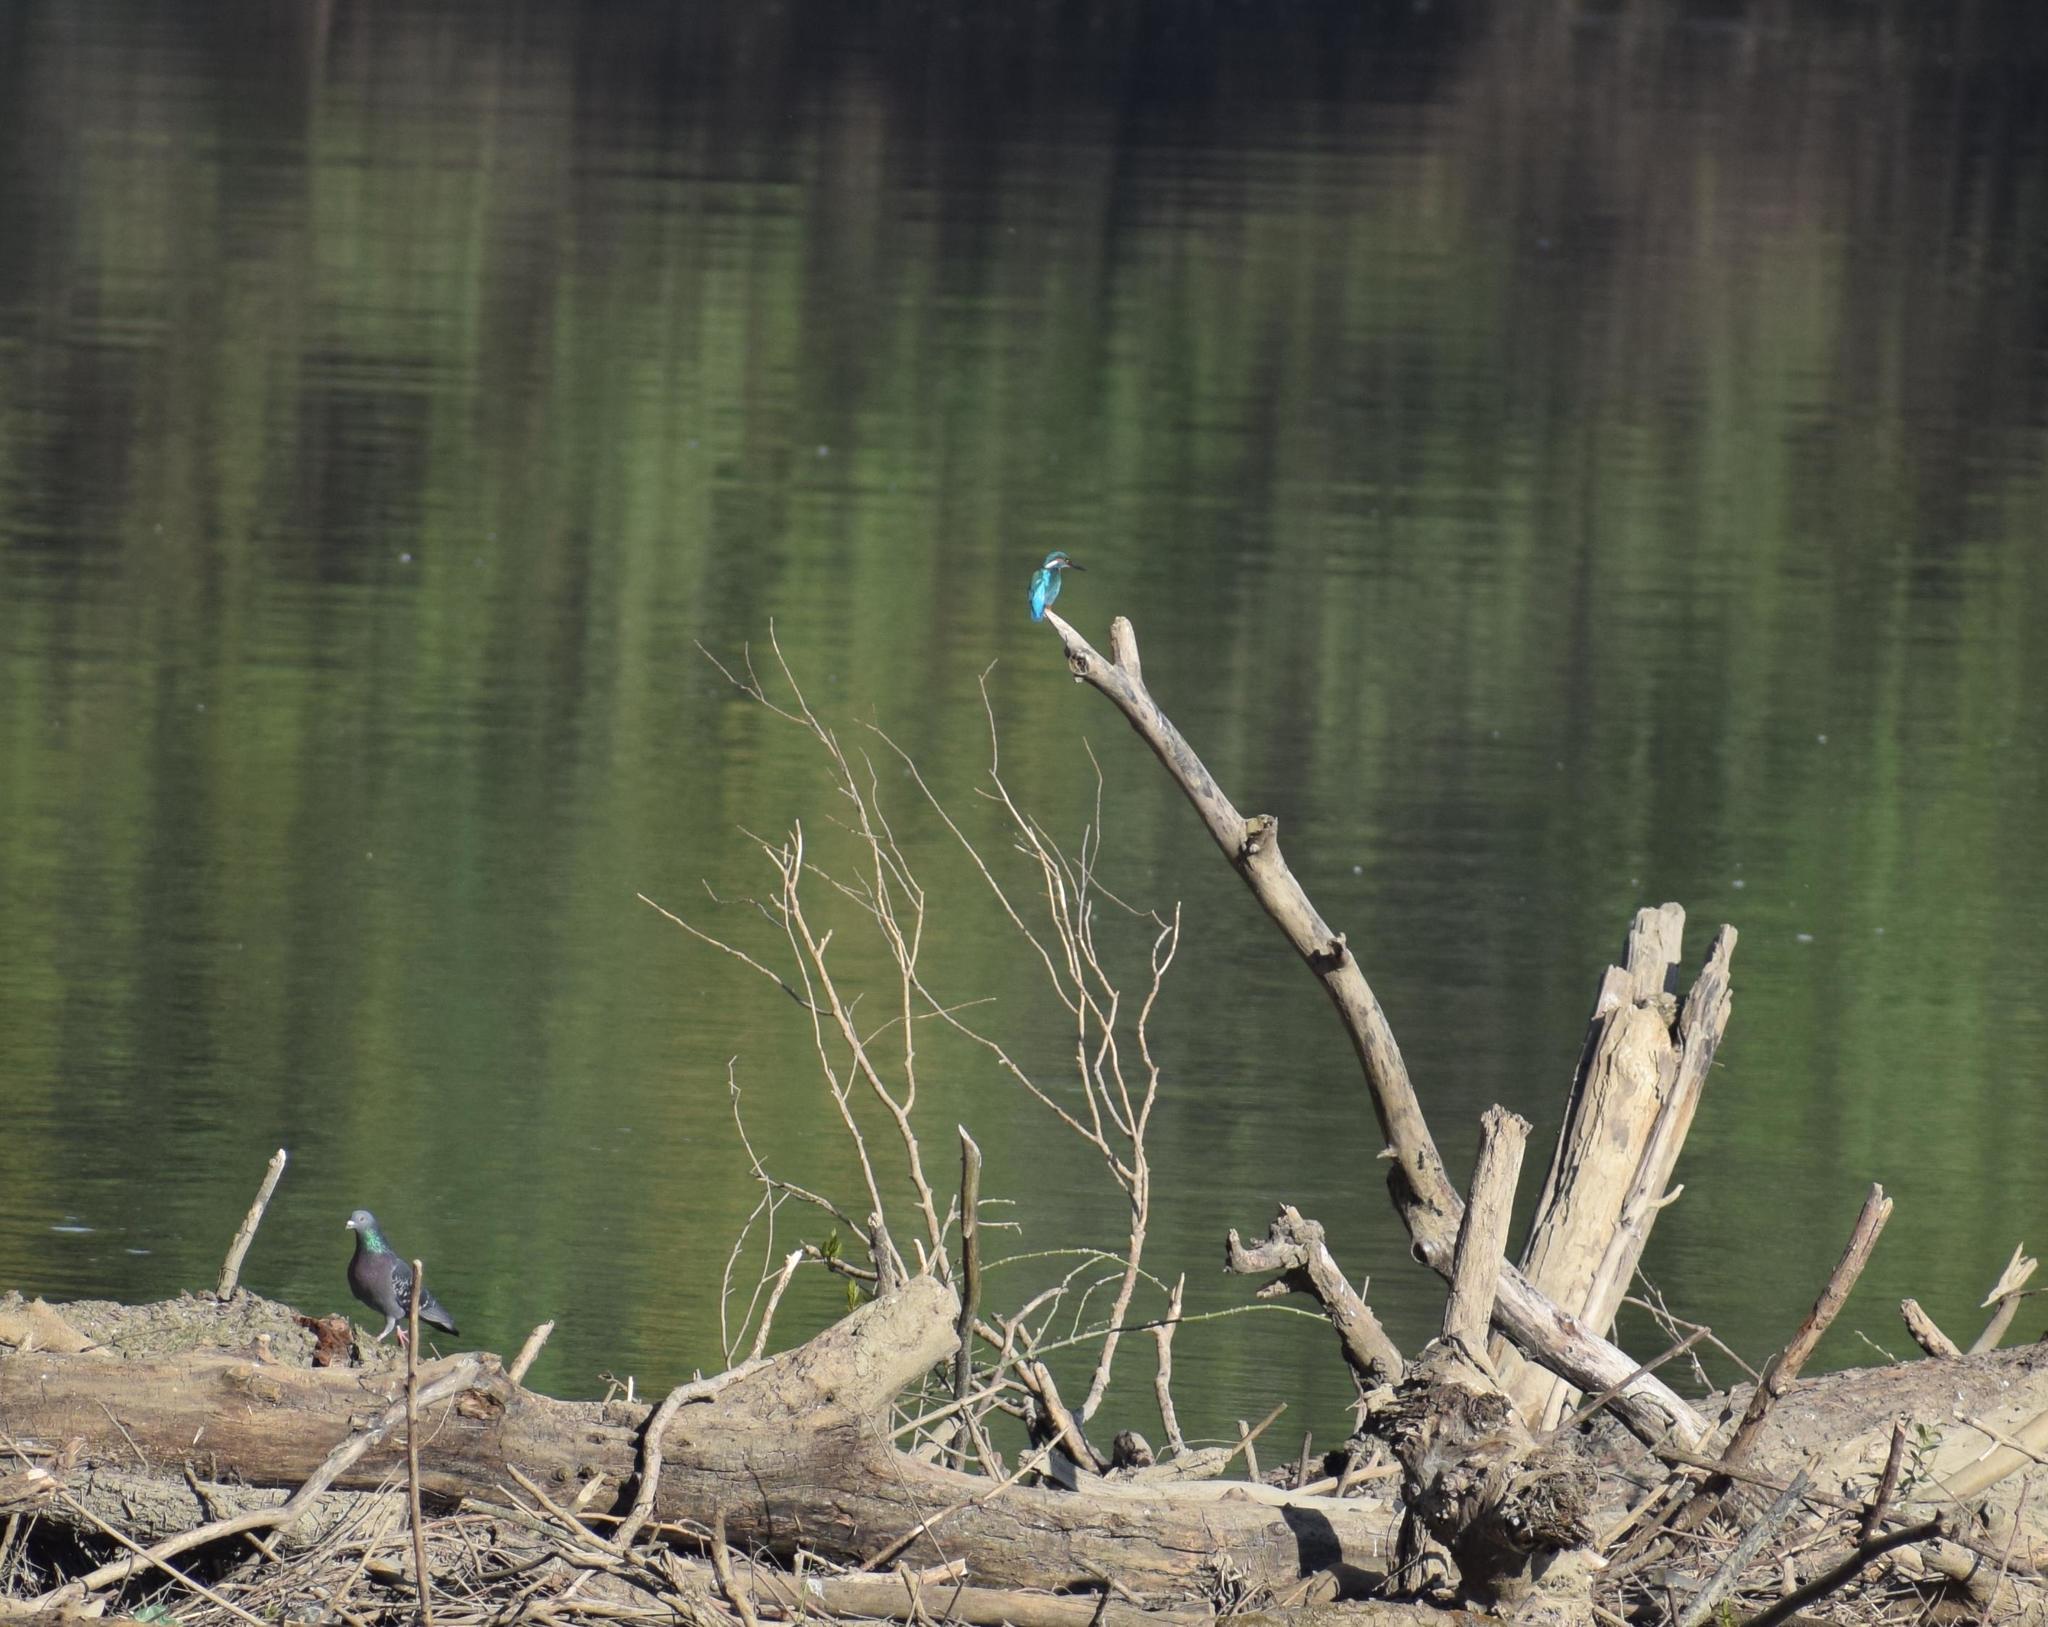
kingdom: Animalia
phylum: Chordata
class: Aves
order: Coraciiformes
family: Alcedinidae
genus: Alcedo
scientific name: Alcedo atthis
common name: Common kingfisher
